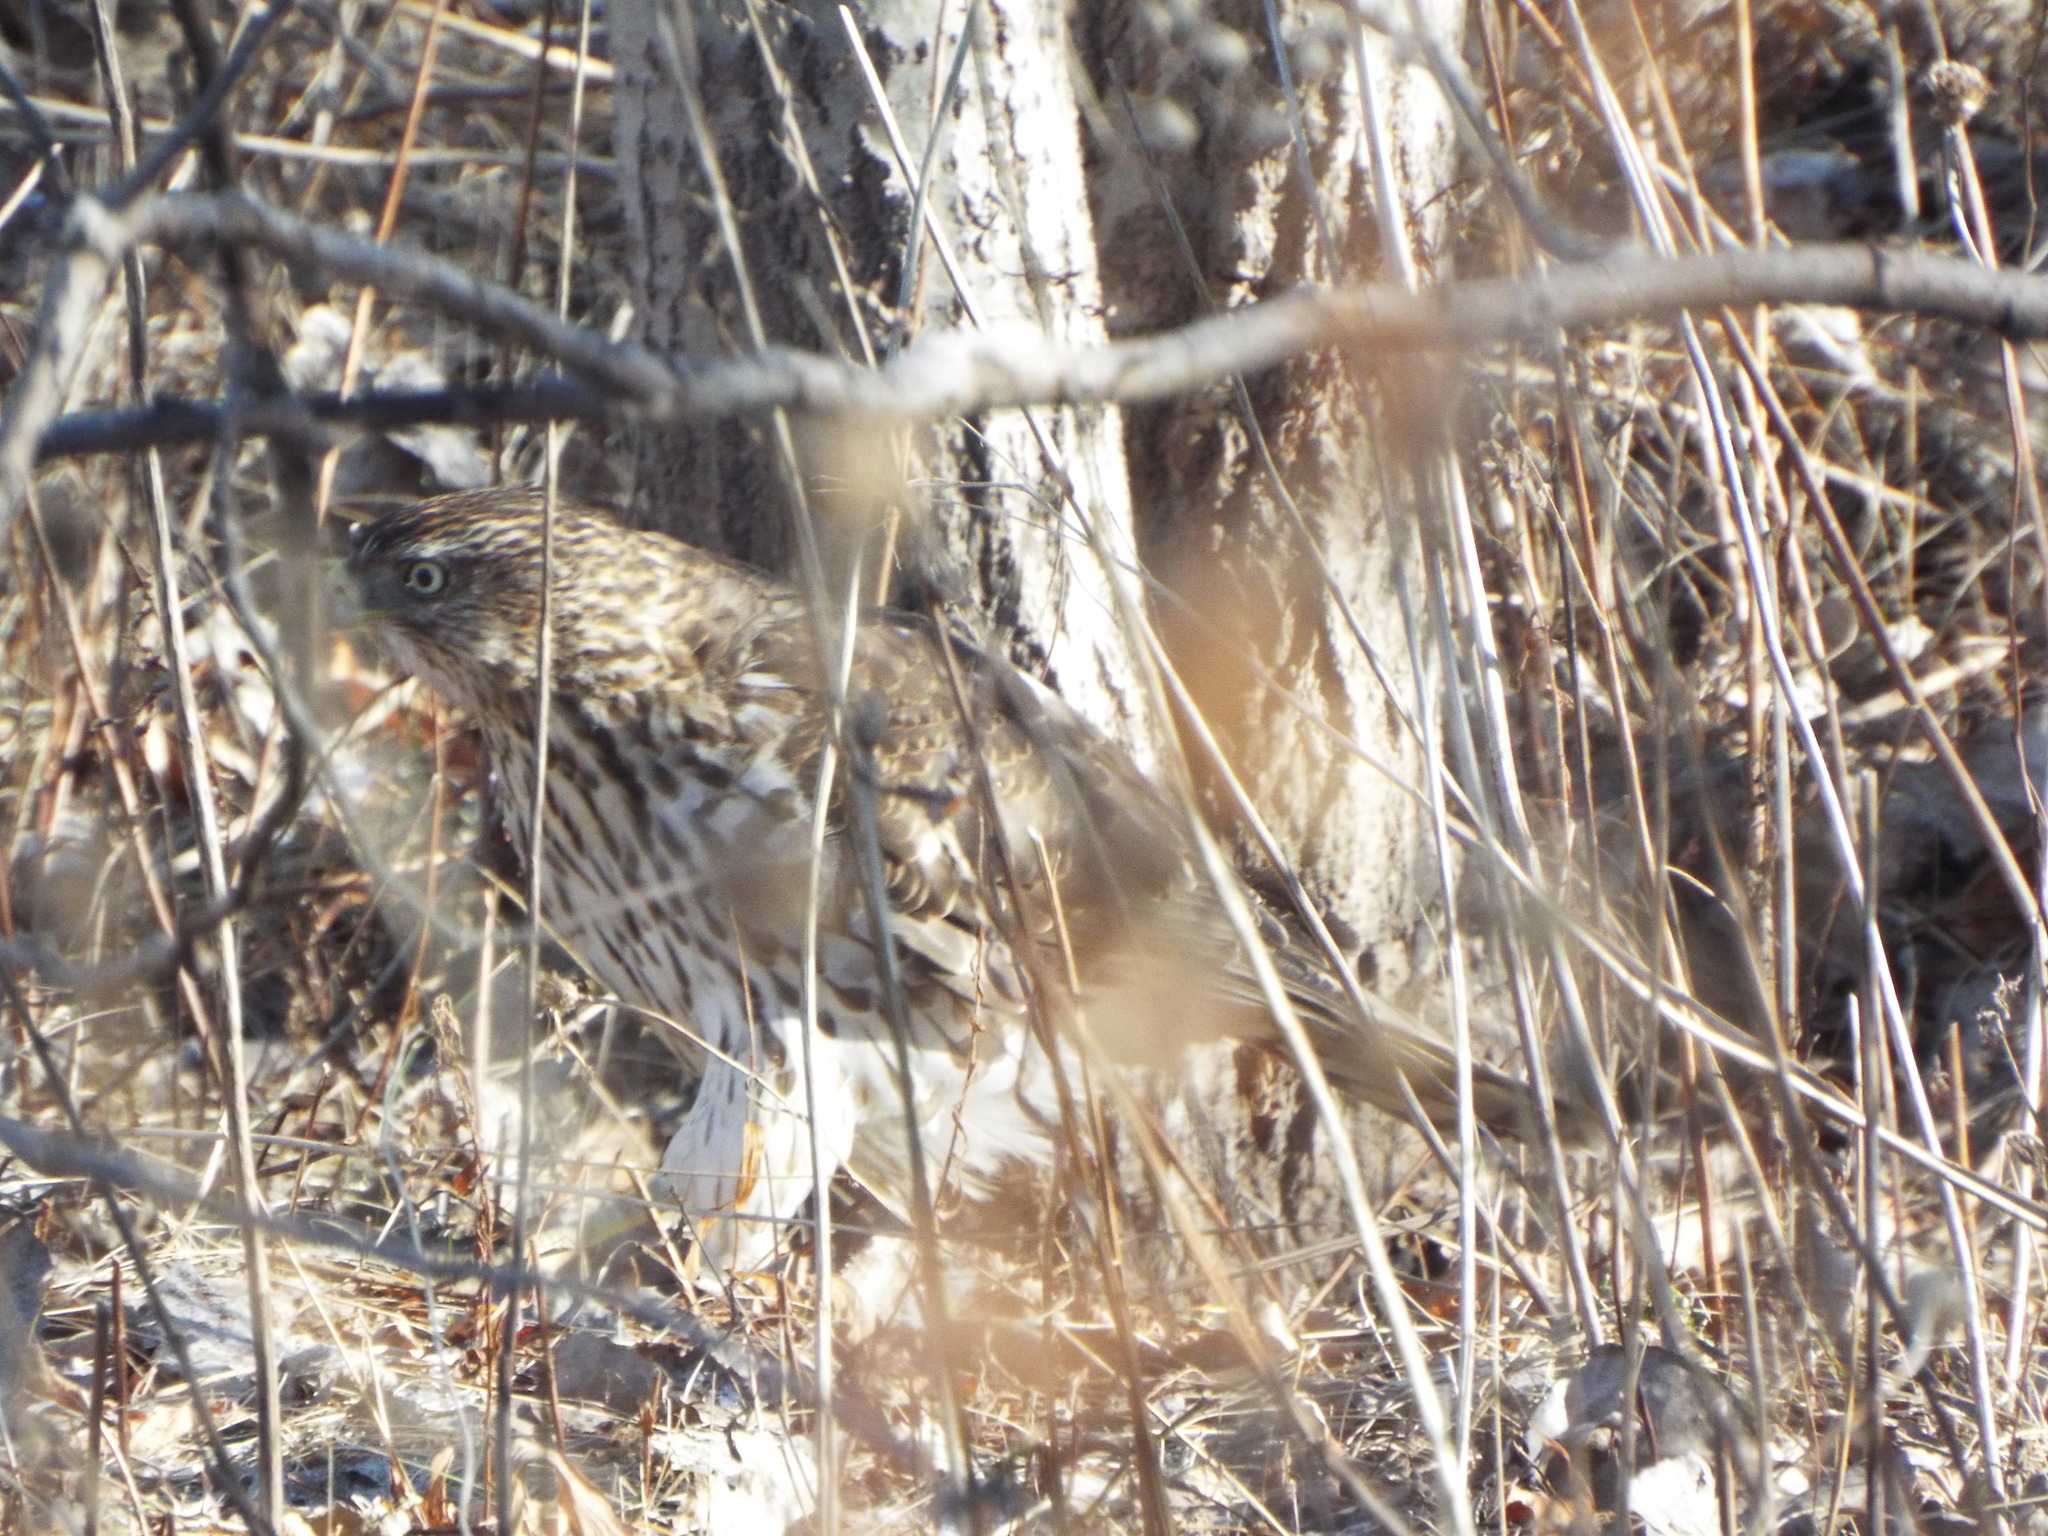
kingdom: Animalia
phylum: Chordata
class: Aves
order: Accipitriformes
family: Accipitridae
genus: Accipiter
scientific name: Accipiter cooperii
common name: Cooper's hawk
